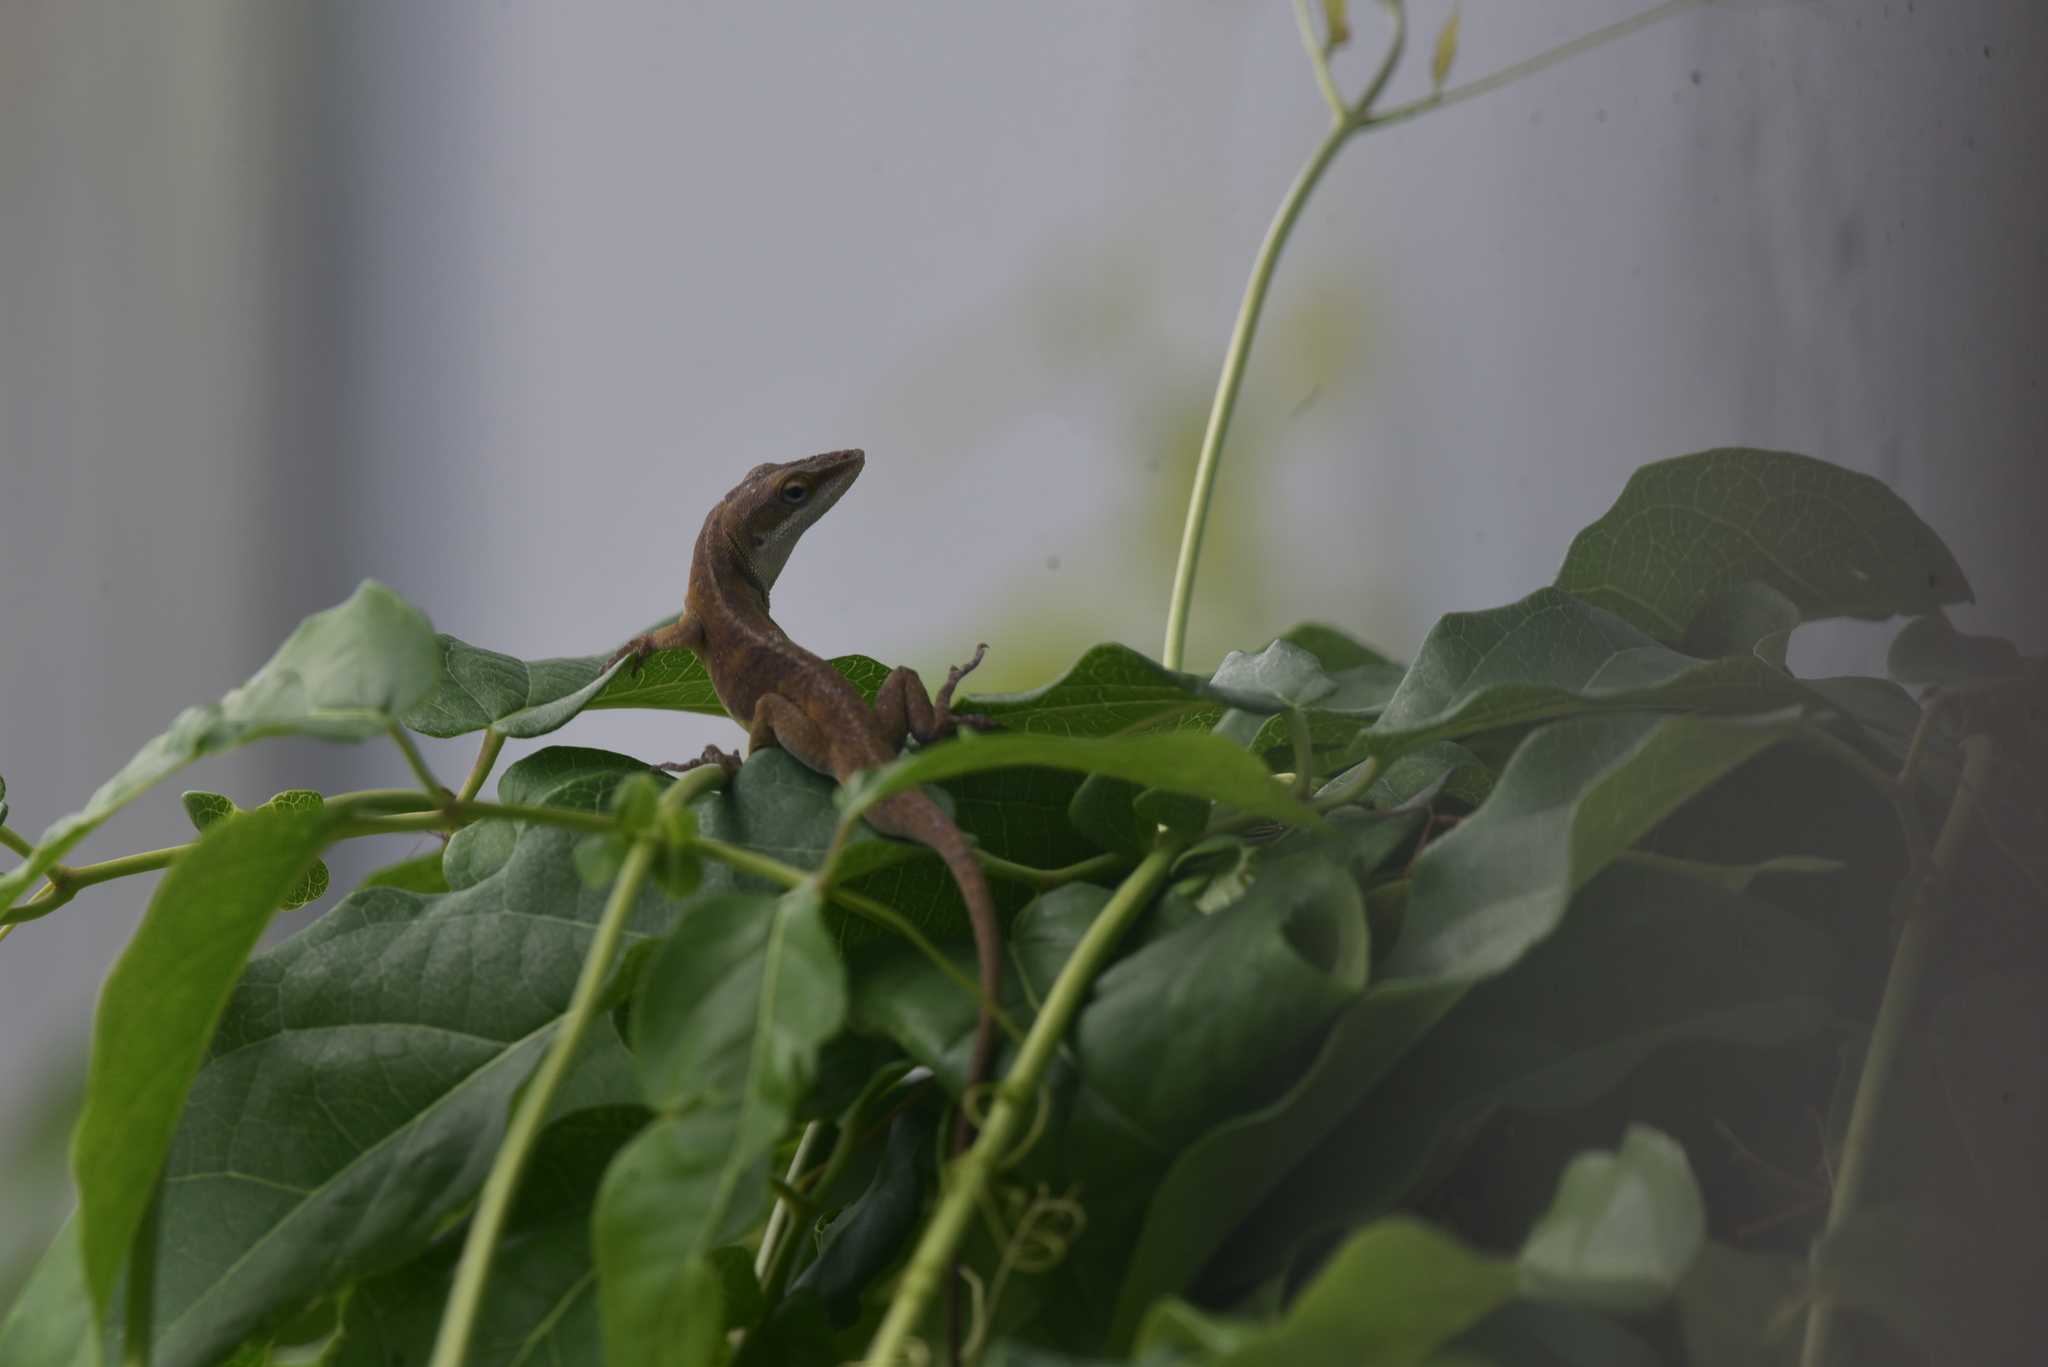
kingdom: Animalia
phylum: Chordata
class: Squamata
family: Dactyloidae
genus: Anolis
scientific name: Anolis carolinensis
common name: Green anole
